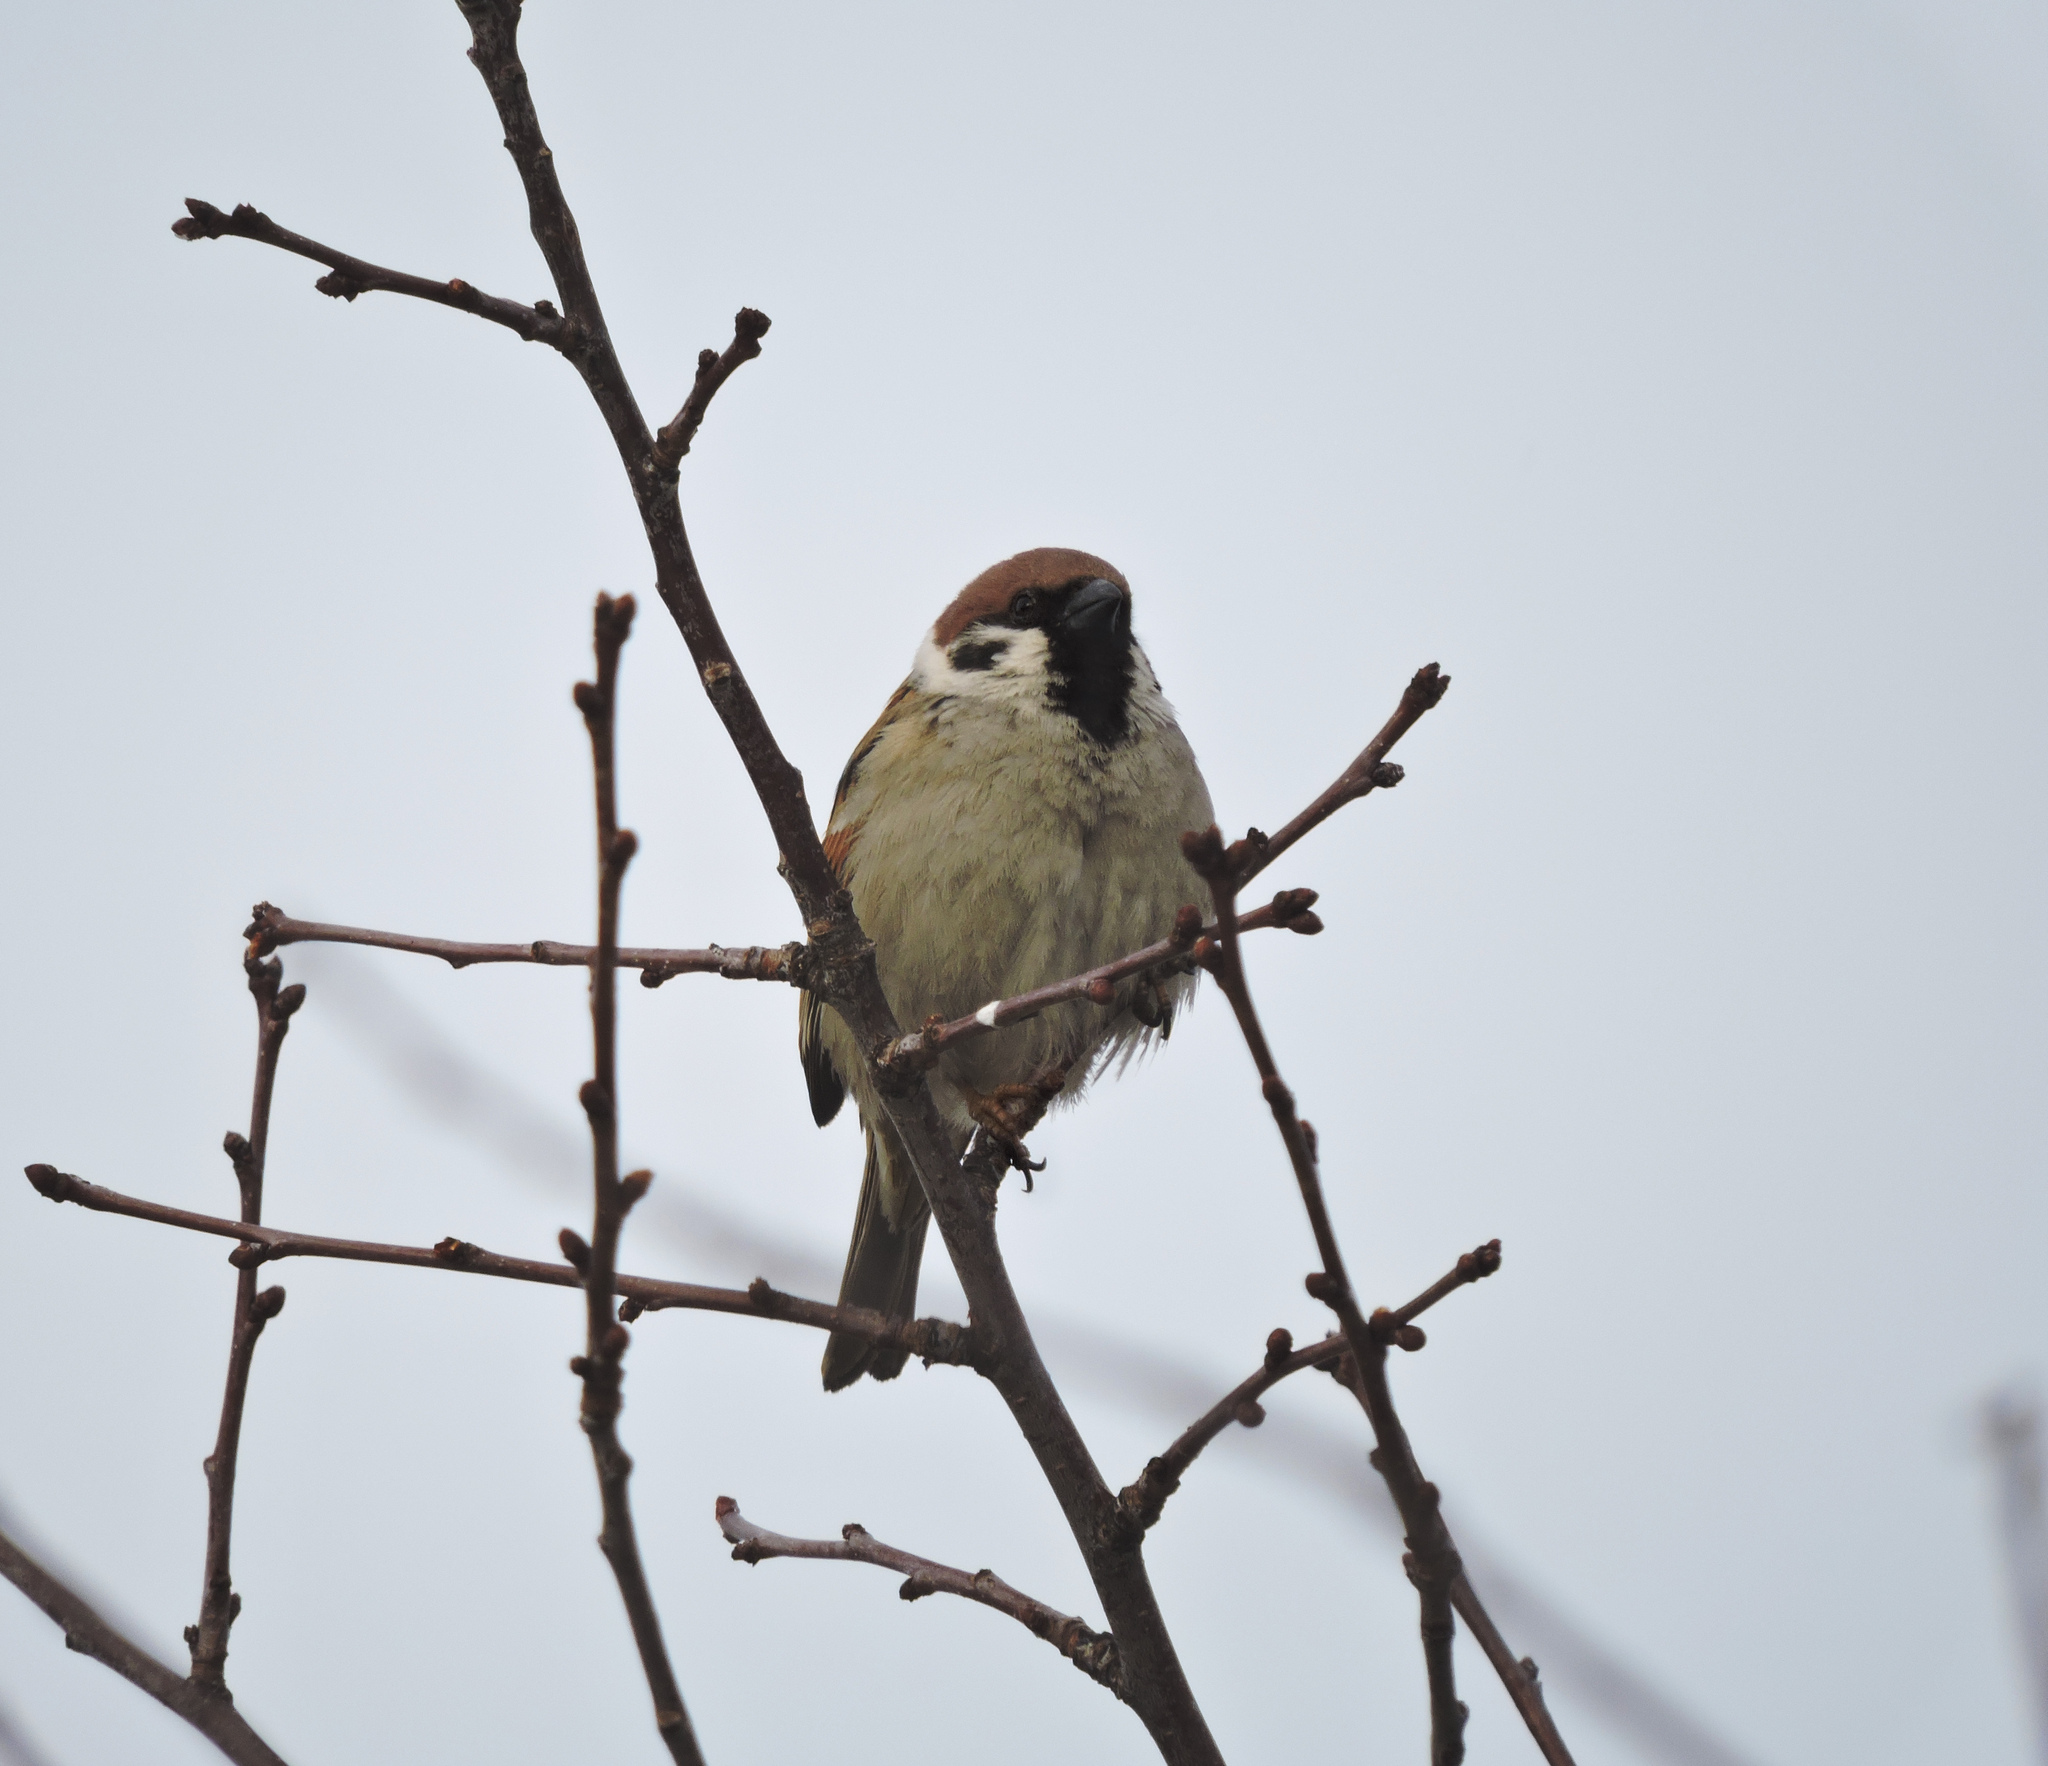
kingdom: Animalia
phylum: Chordata
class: Aves
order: Passeriformes
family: Passeridae
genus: Passer
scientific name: Passer montanus
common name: Eurasian tree sparrow
